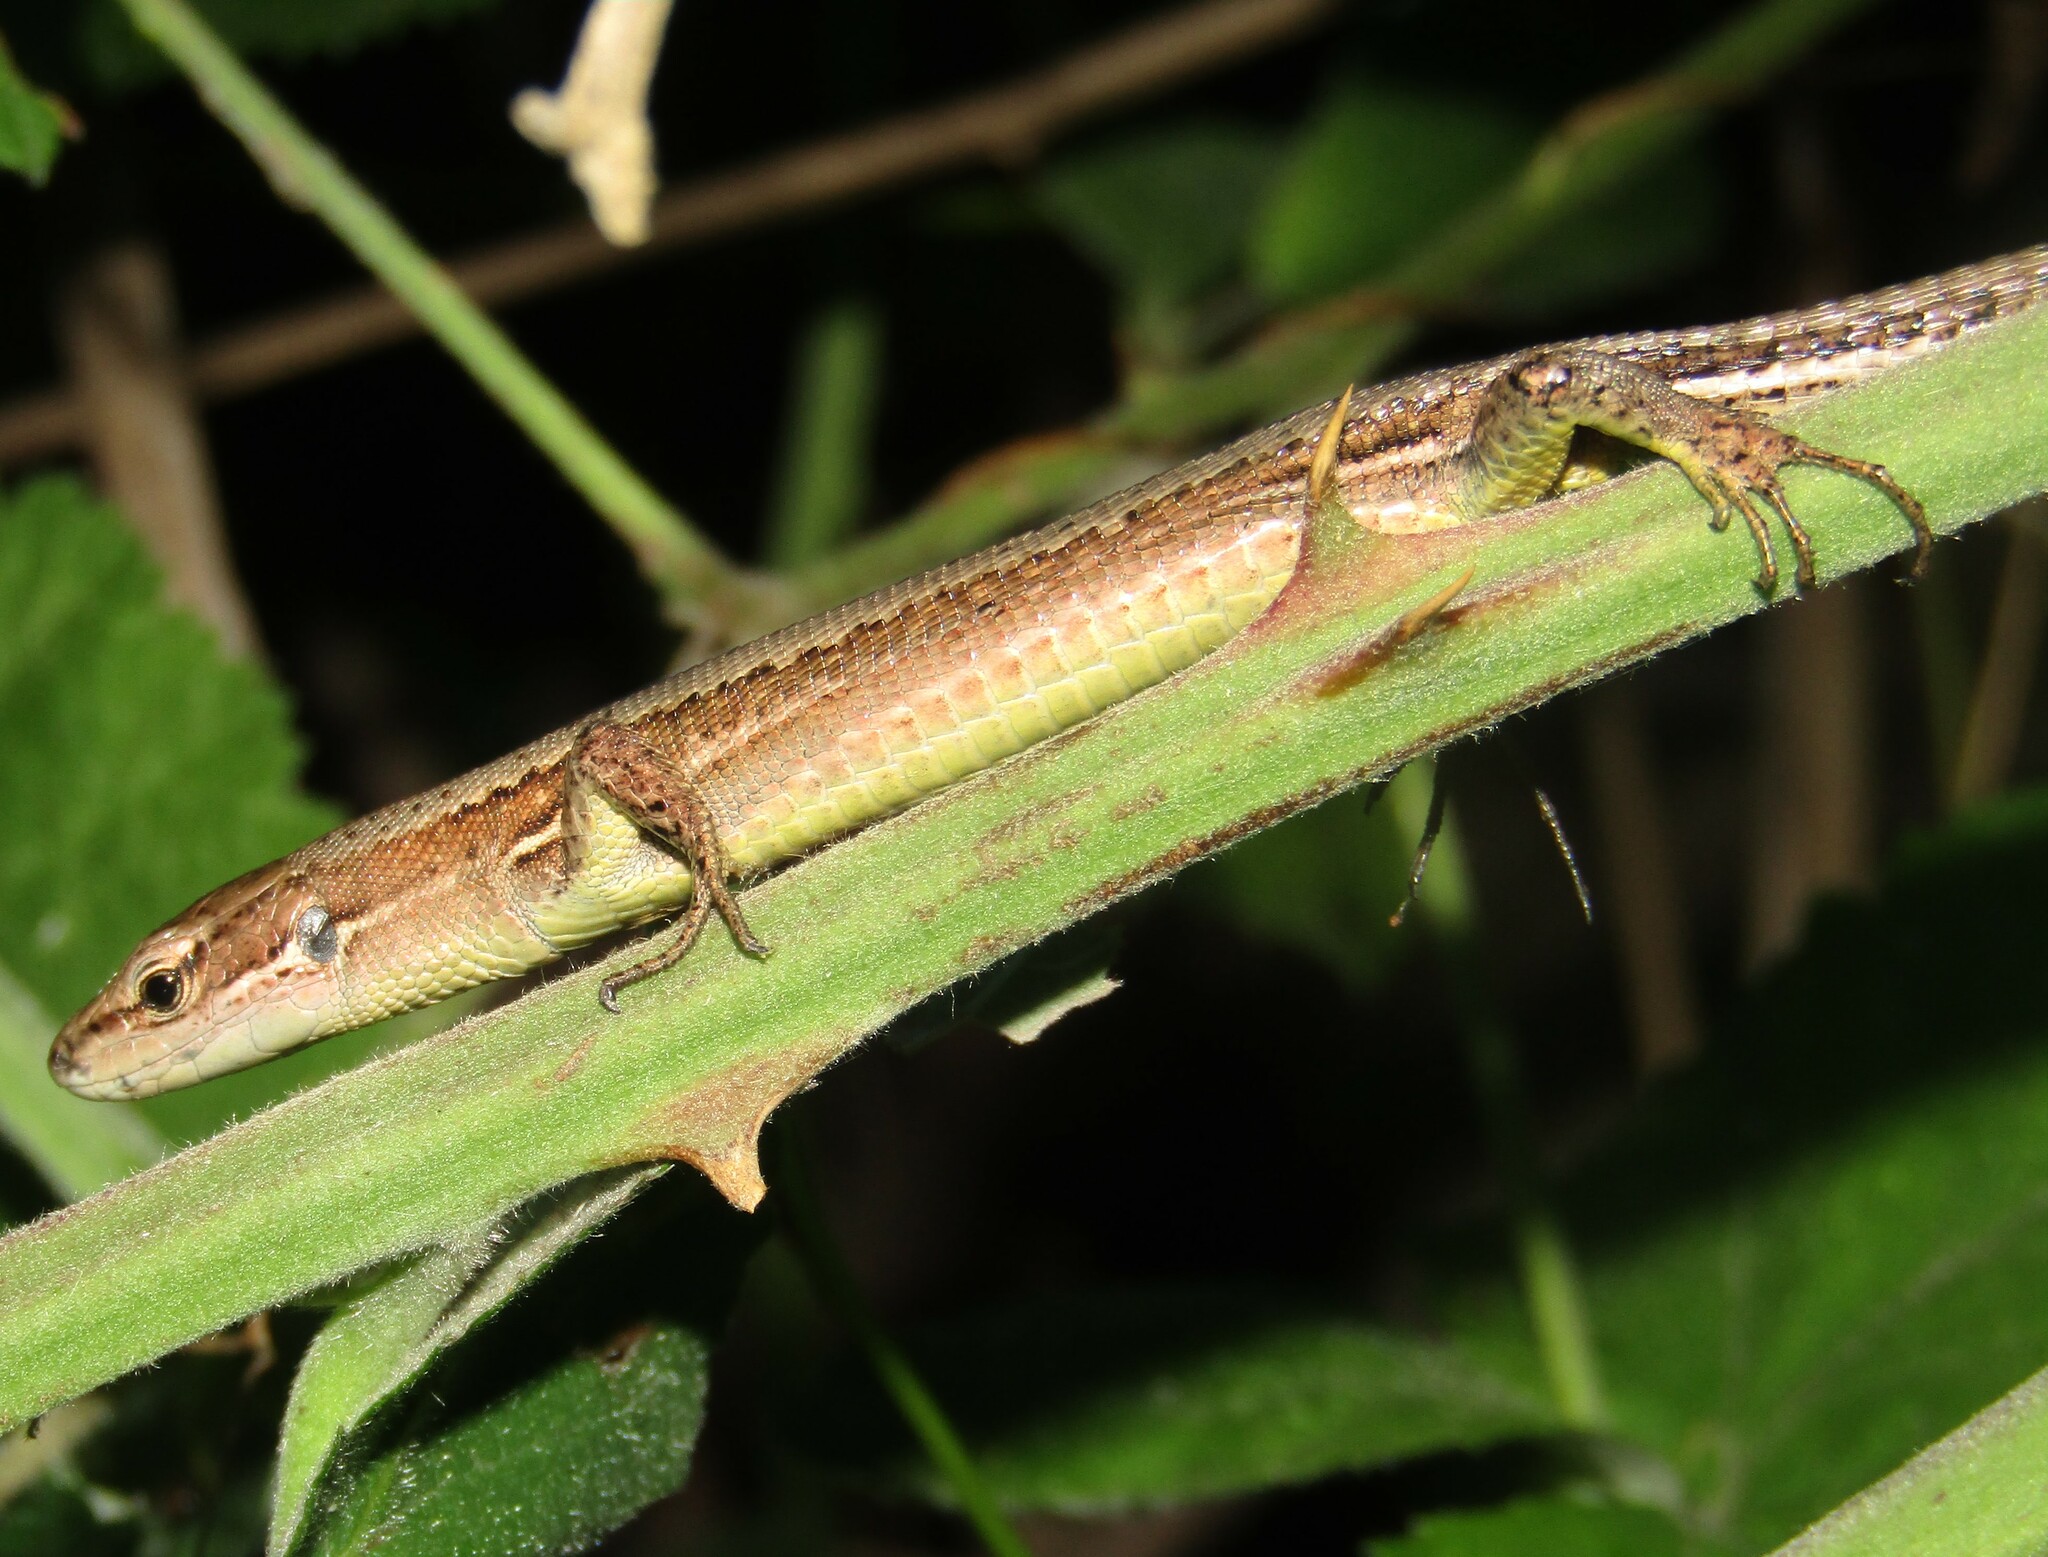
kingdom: Animalia
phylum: Chordata
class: Squamata
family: Lacertidae
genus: Darevskia
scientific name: Darevskia praticola
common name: Meadow lizard
